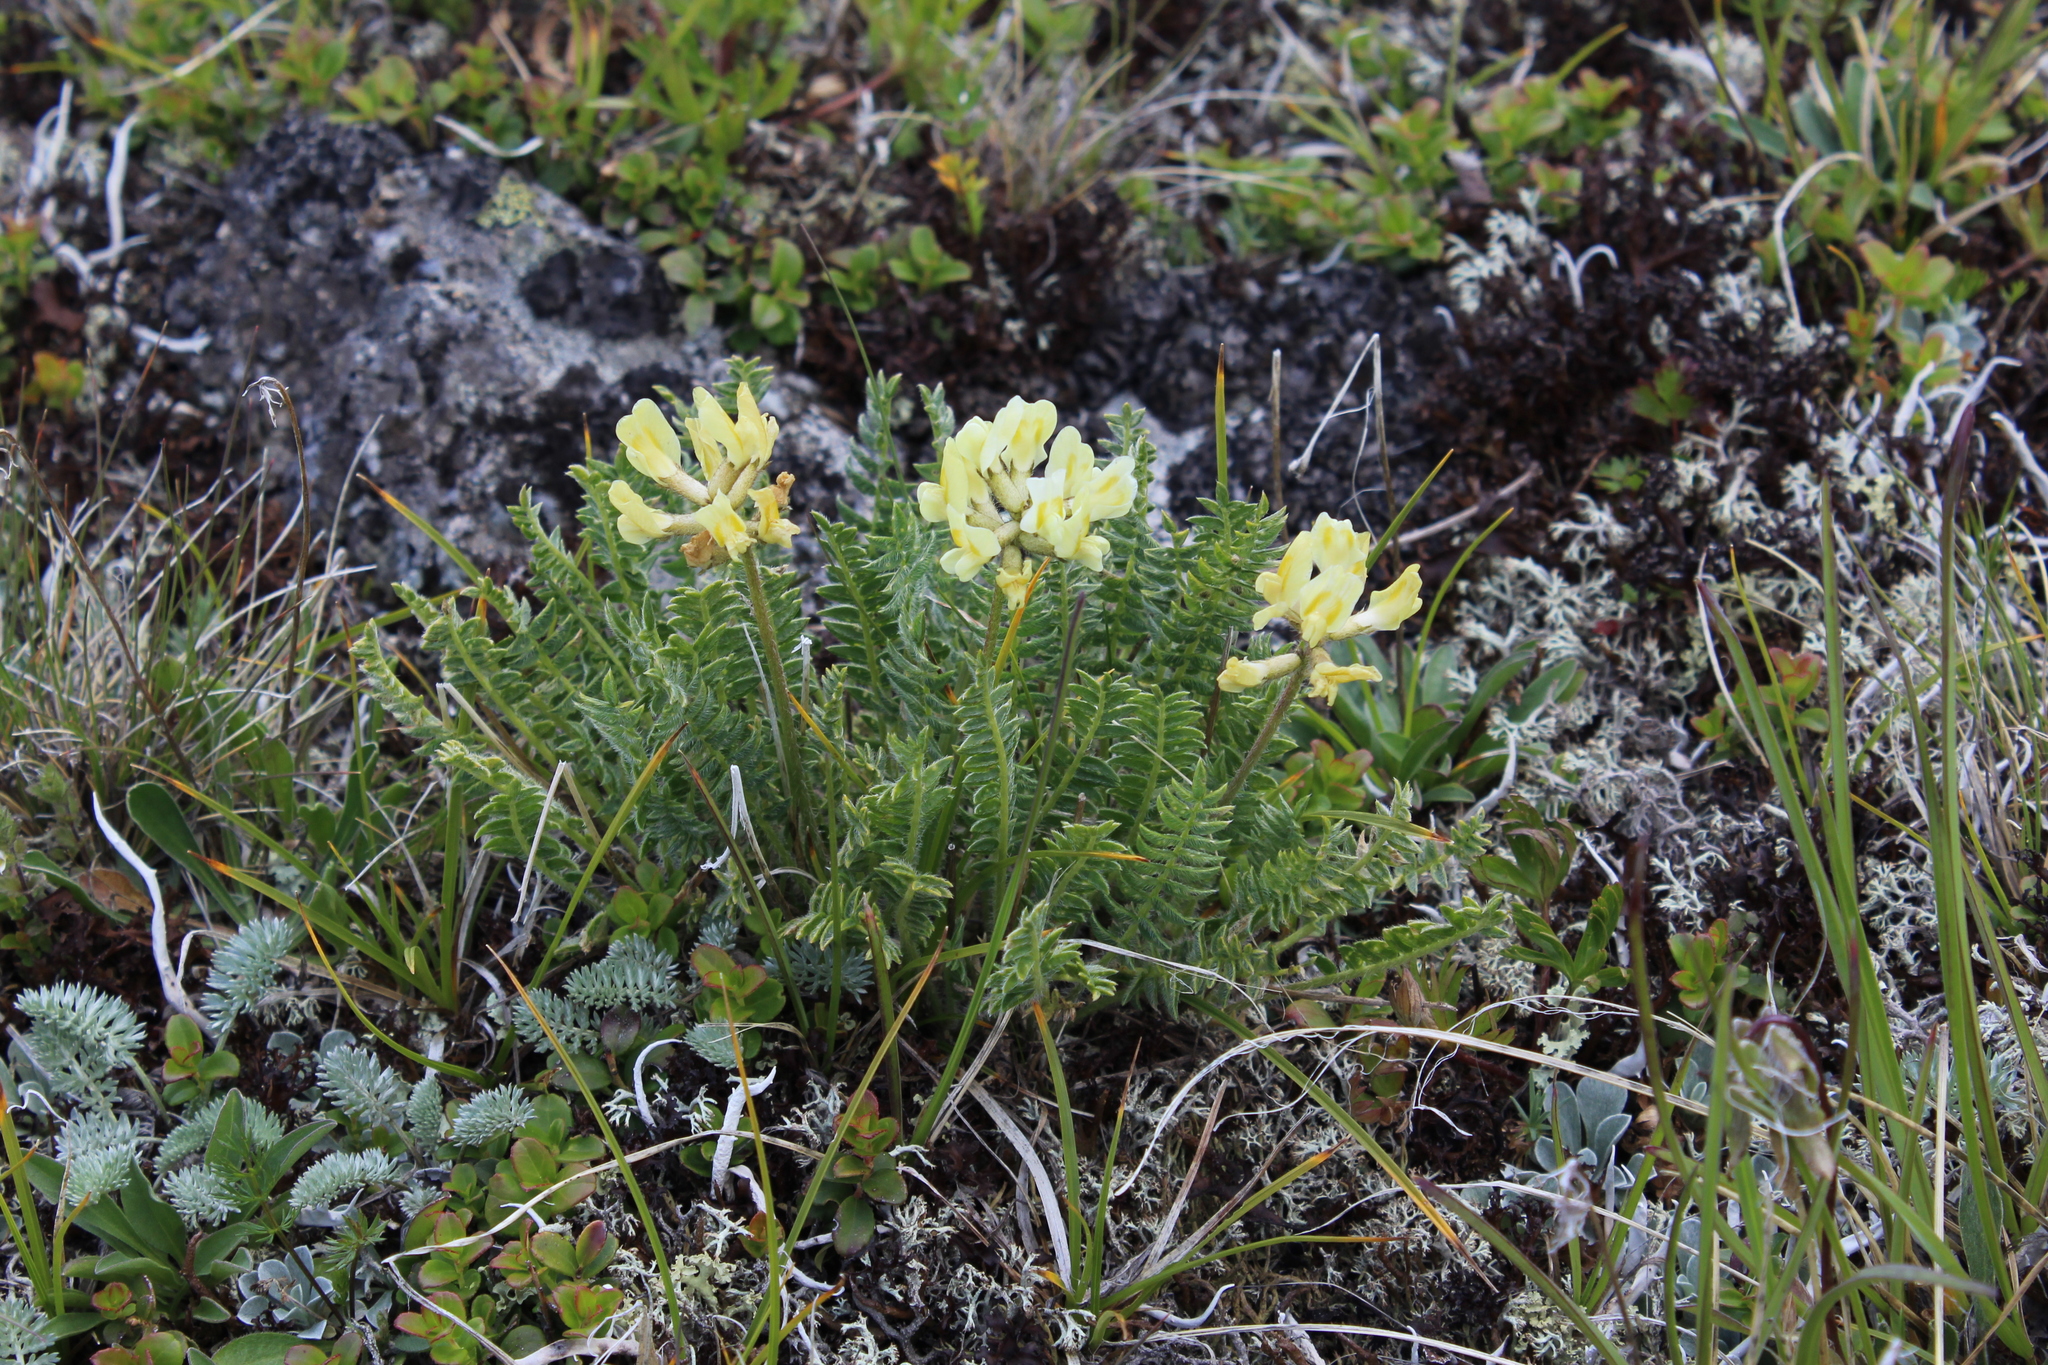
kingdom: Plantae
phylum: Tracheophyta
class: Magnoliopsida
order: Fabales
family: Fabaceae
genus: Oxytropis
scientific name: Oxytropis kubanensis
